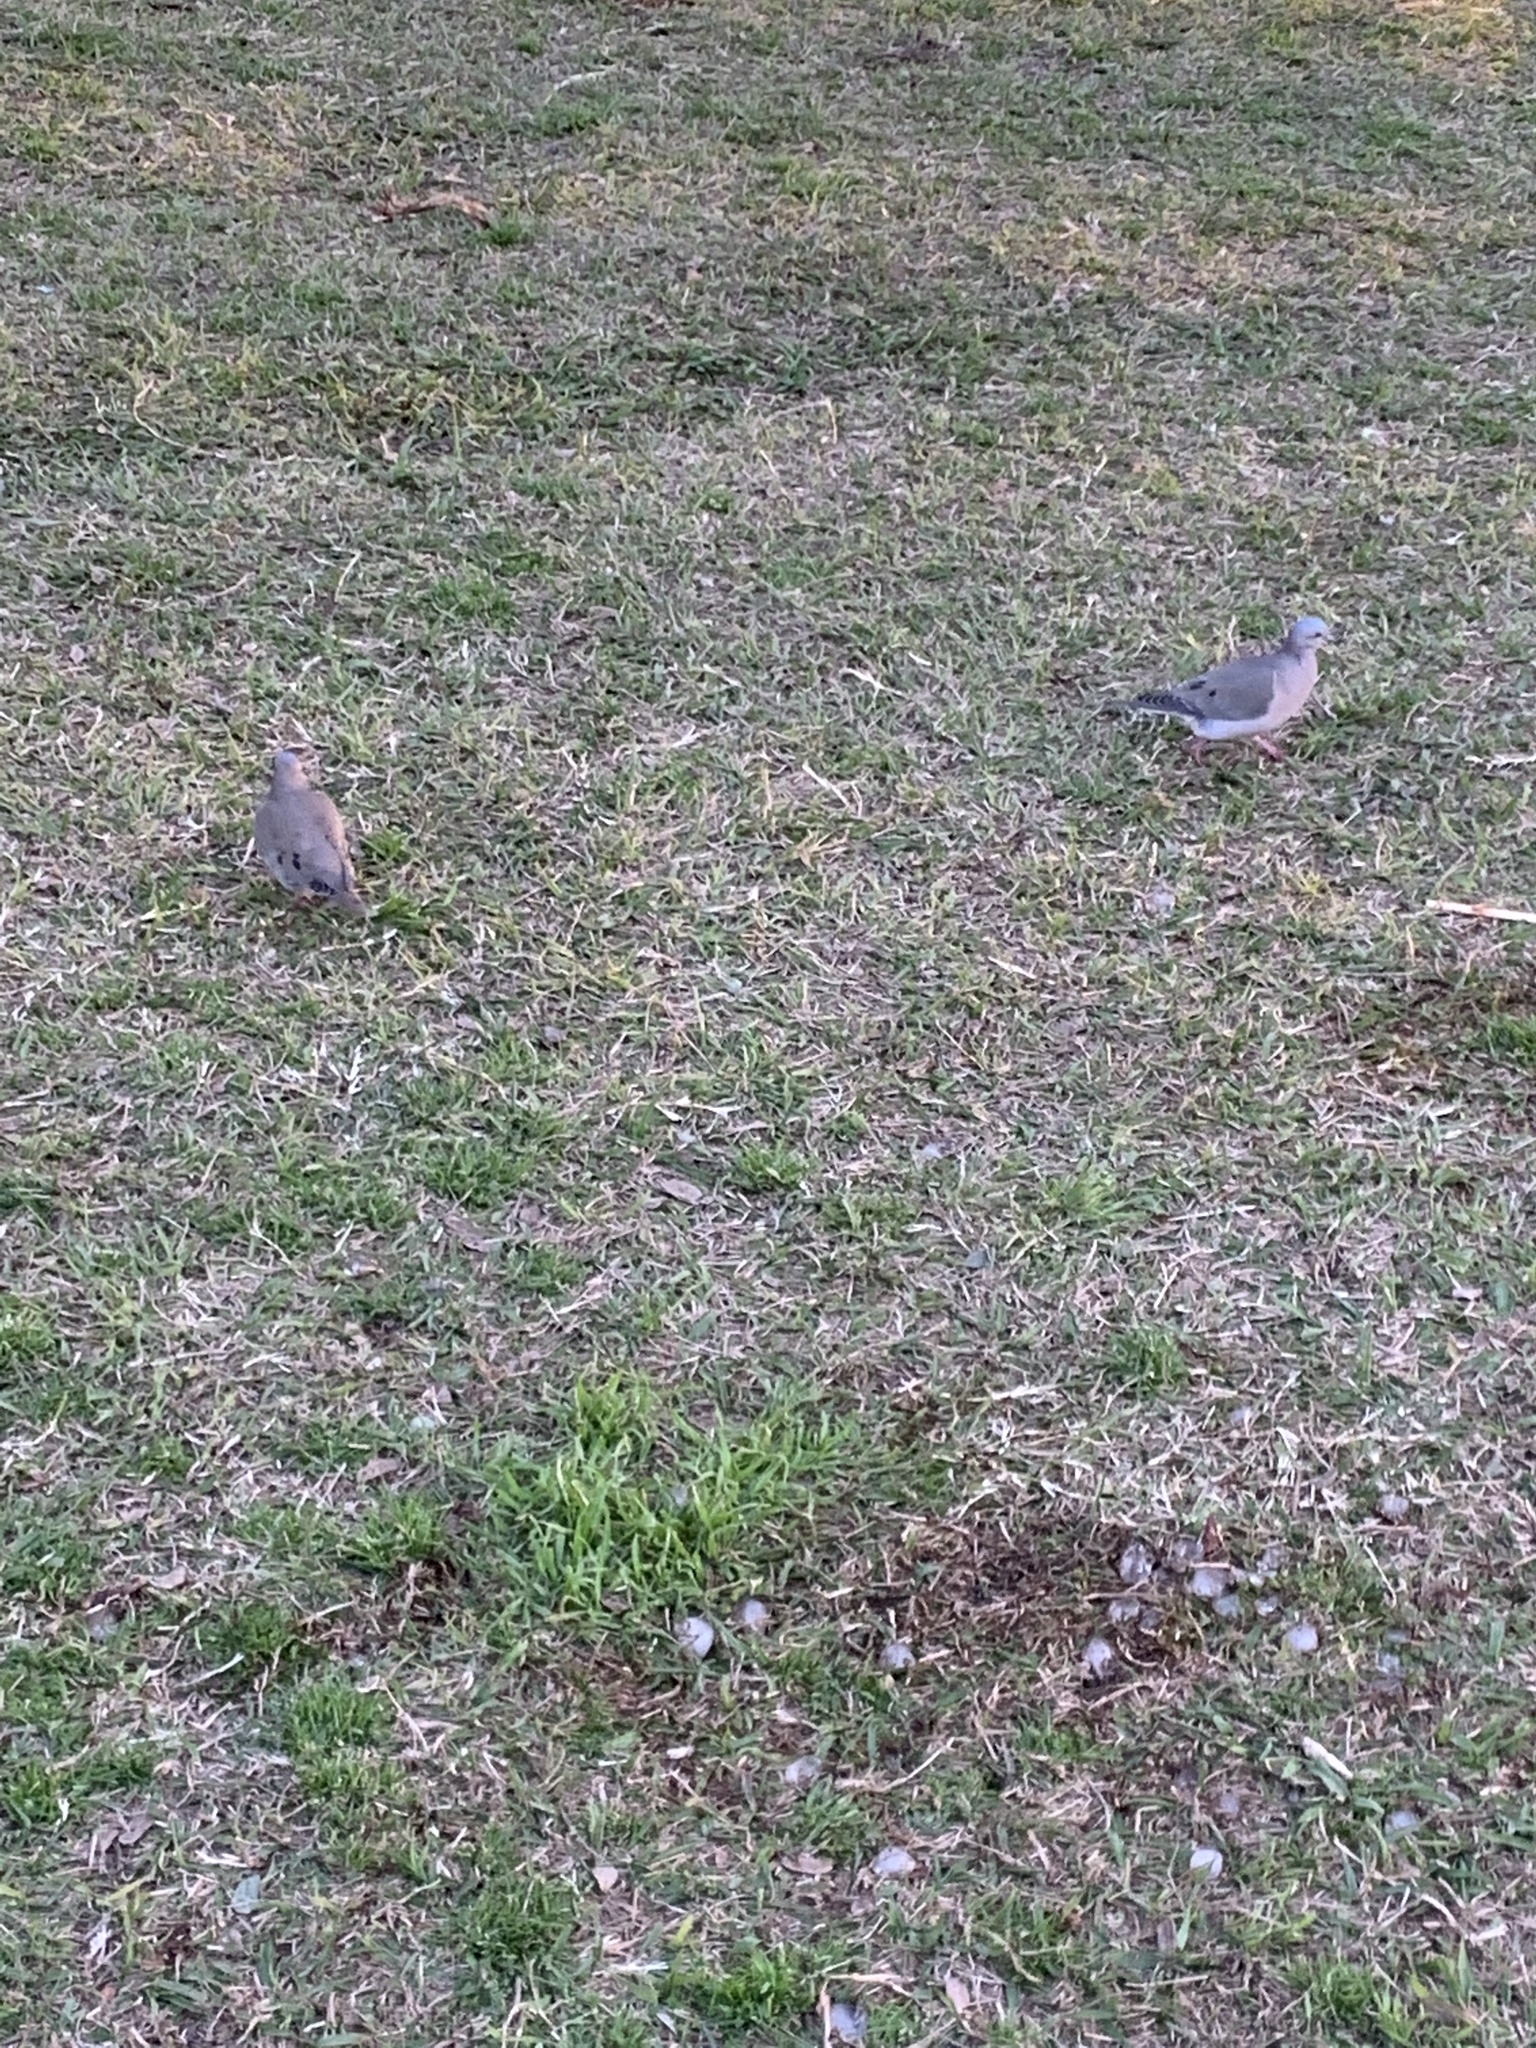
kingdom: Animalia
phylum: Chordata
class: Aves
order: Columbiformes
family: Columbidae
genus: Zenaida
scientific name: Zenaida auriculata
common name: Eared dove
